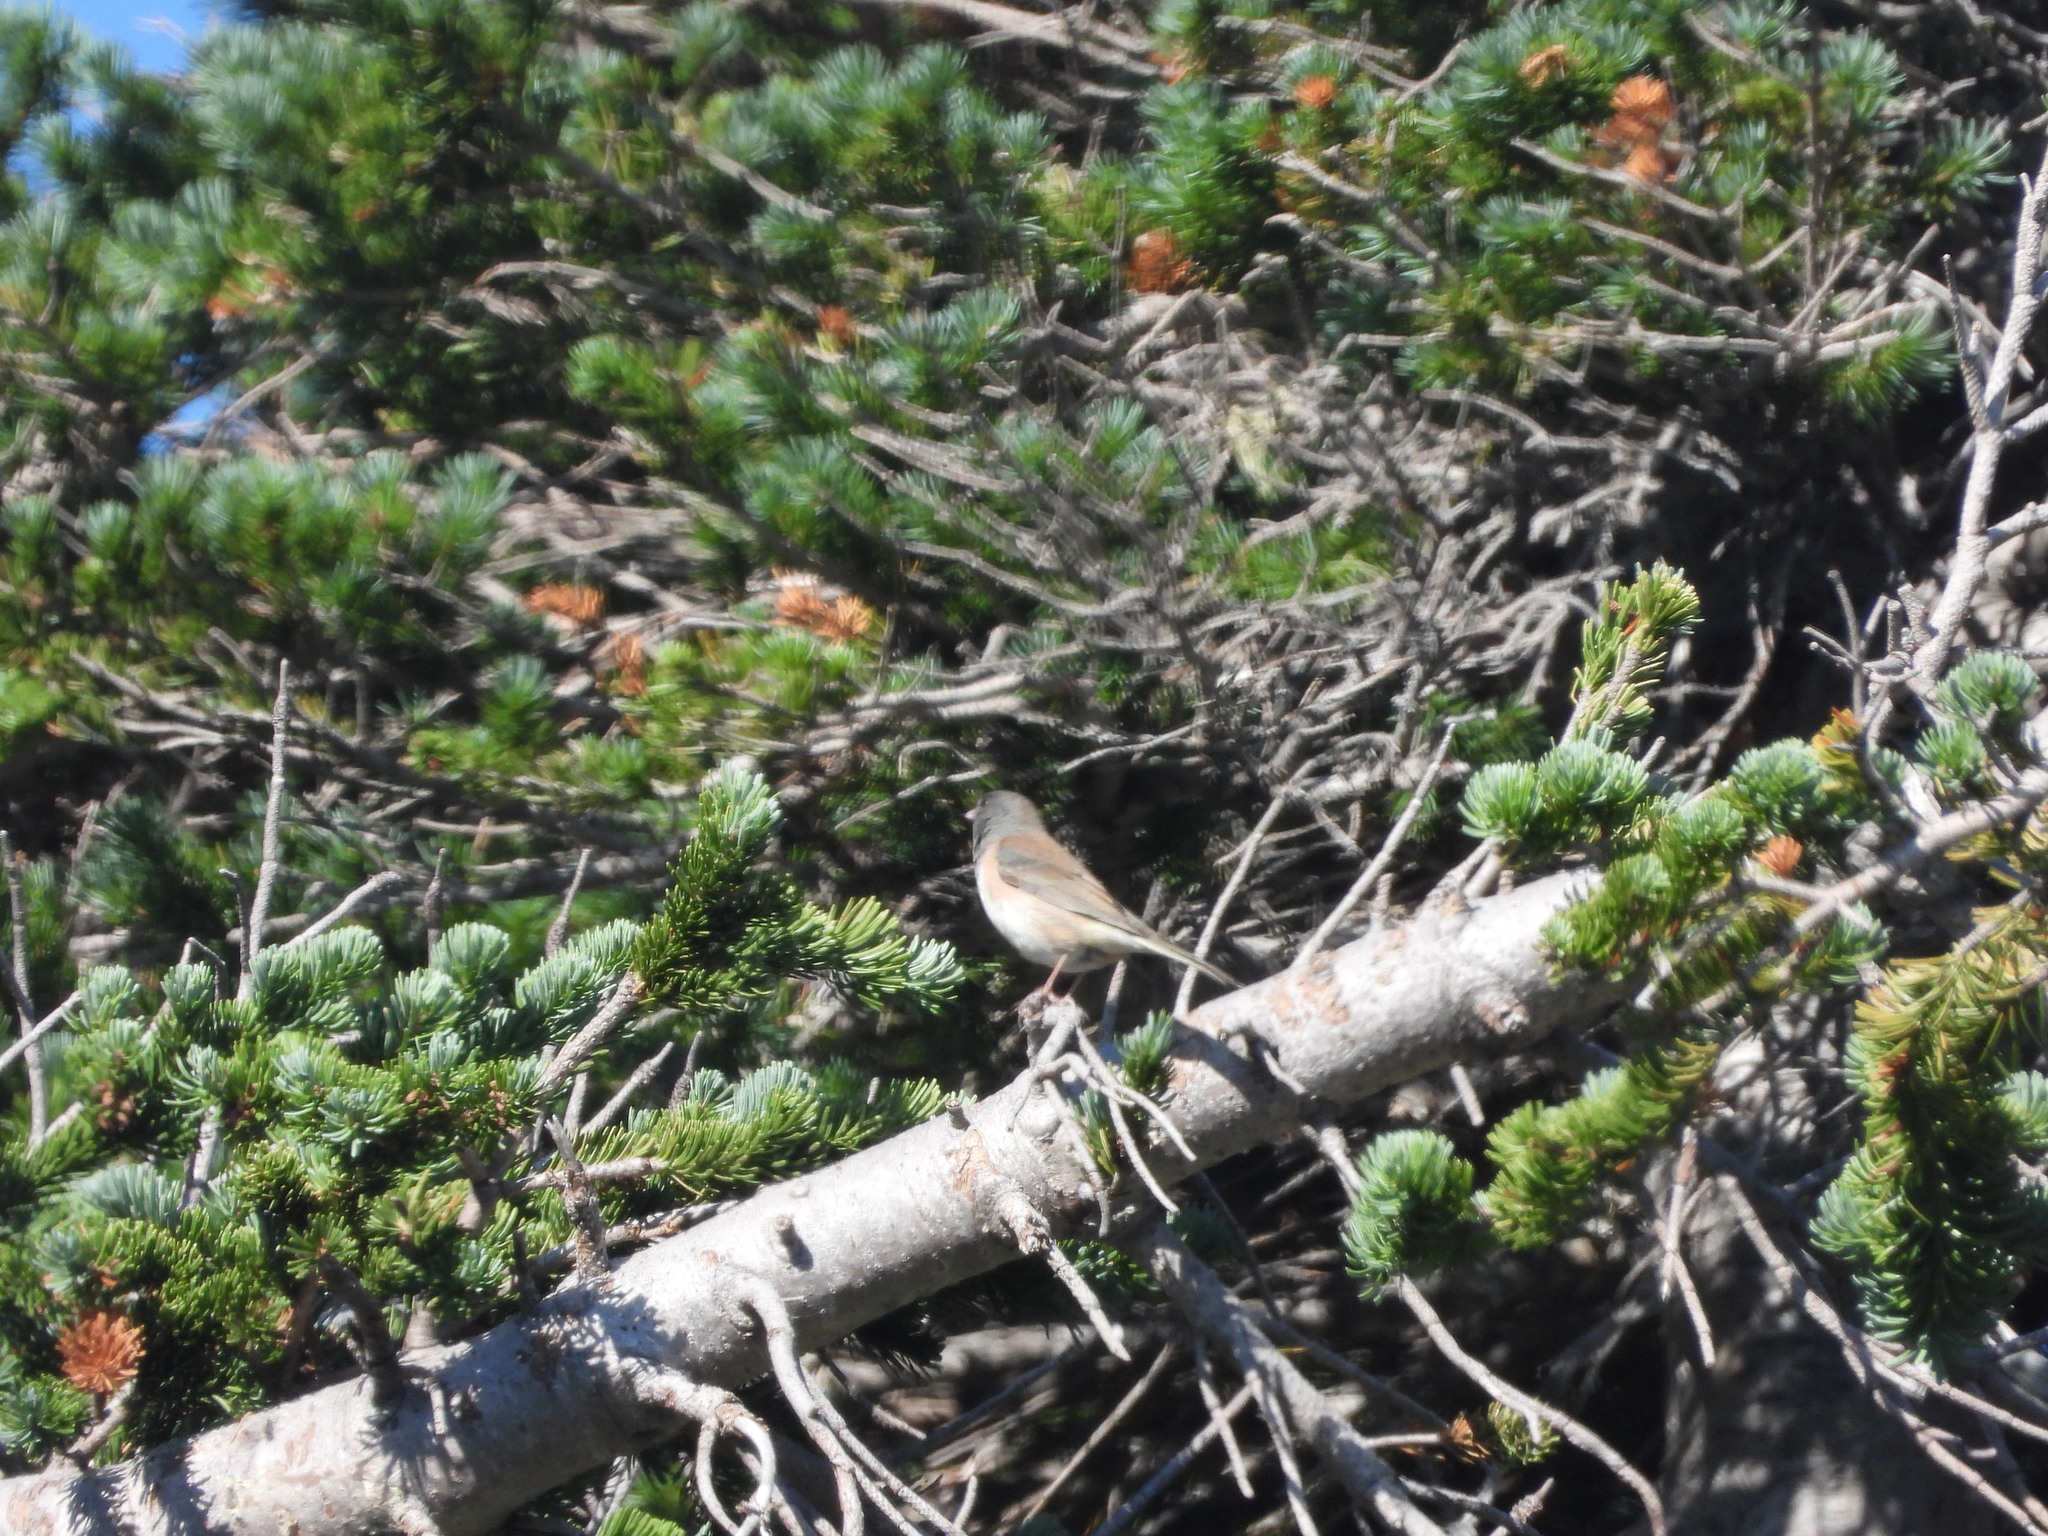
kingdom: Animalia
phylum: Chordata
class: Aves
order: Passeriformes
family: Passerellidae
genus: Junco
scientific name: Junco hyemalis
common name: Dark-eyed junco
